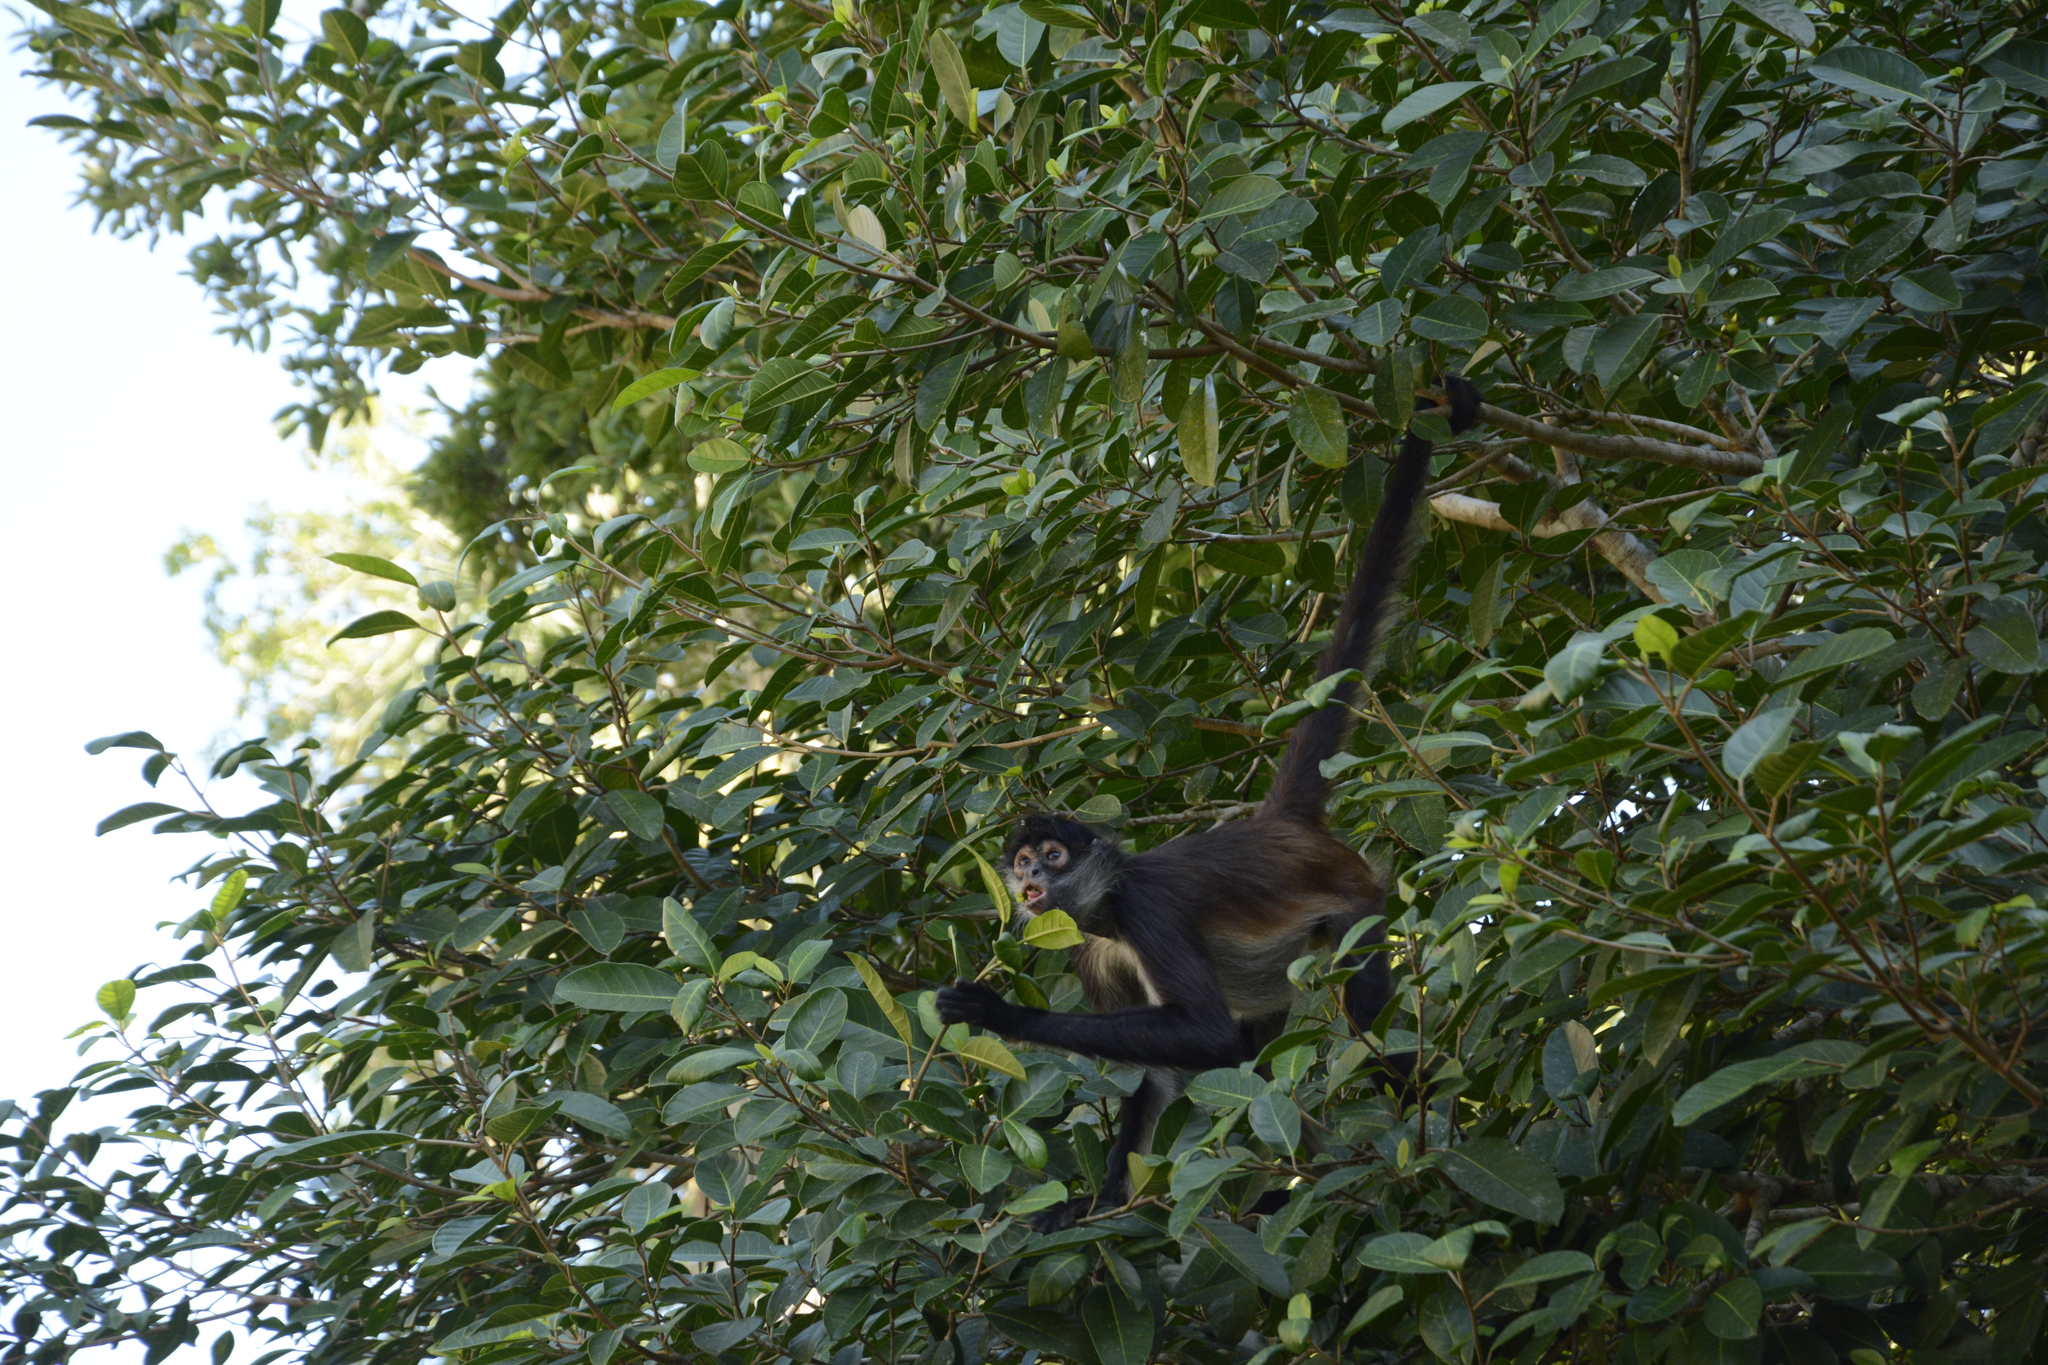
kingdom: Animalia
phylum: Chordata
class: Mammalia
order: Primates
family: Atelidae
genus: Ateles
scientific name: Ateles geoffroyi
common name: Black-handed spider monkey
